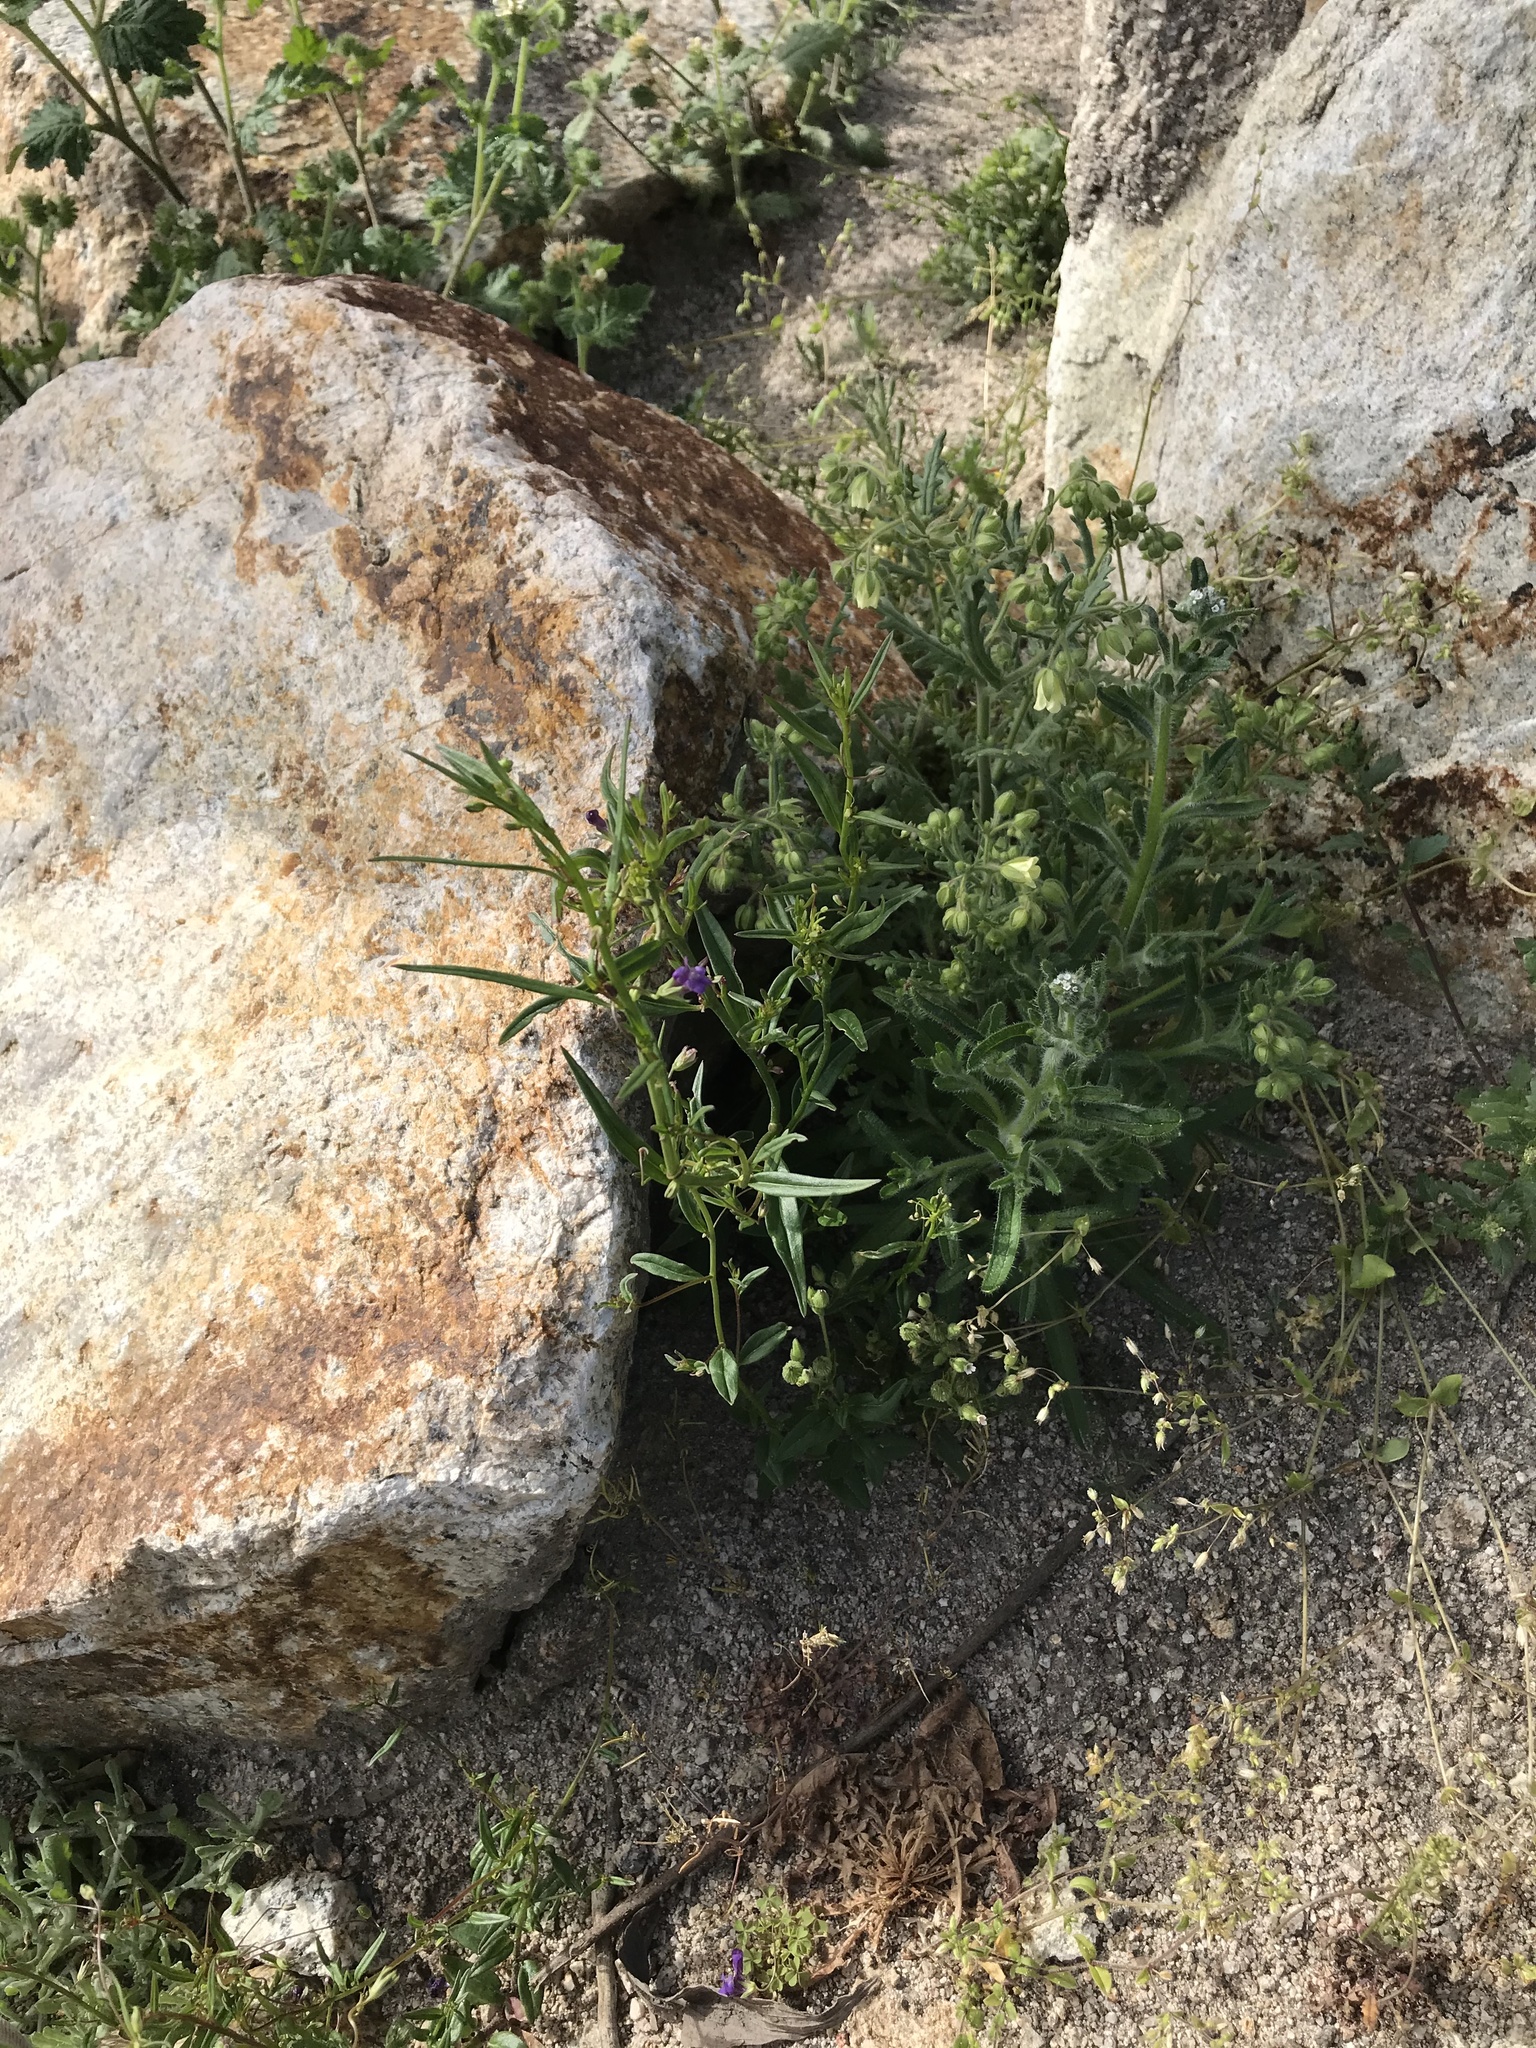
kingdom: Plantae
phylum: Tracheophyta
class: Magnoliopsida
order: Lamiales
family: Plantaginaceae
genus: Neogaerrhinum
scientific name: Neogaerrhinum strictum
